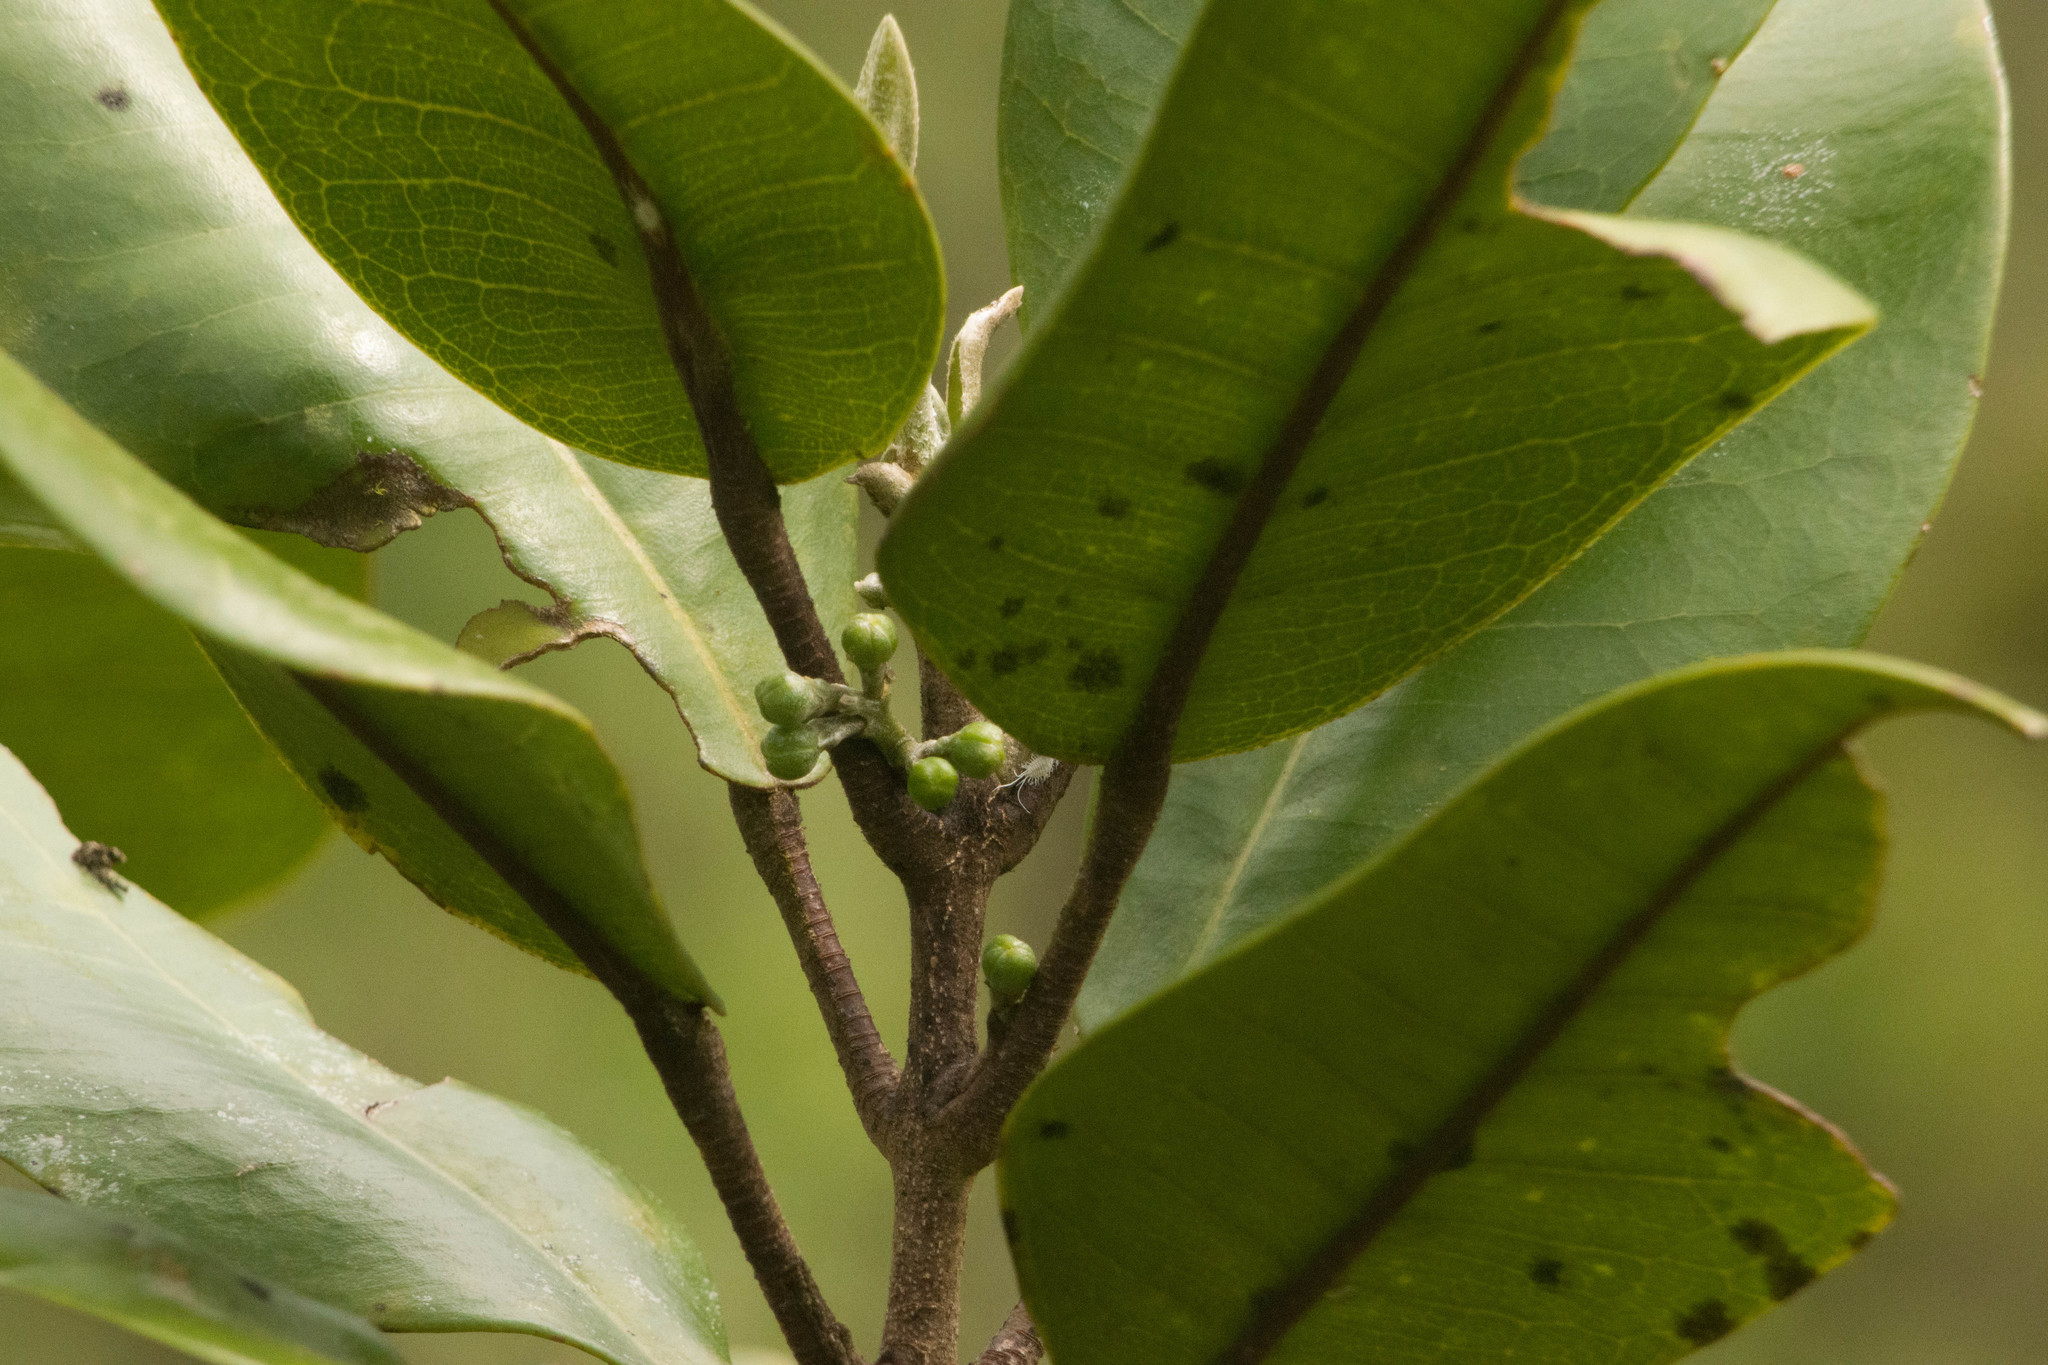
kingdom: Plantae
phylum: Tracheophyta
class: Magnoliopsida
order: Sapindales
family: Rutaceae
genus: Melicope
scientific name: Melicope hosakae
